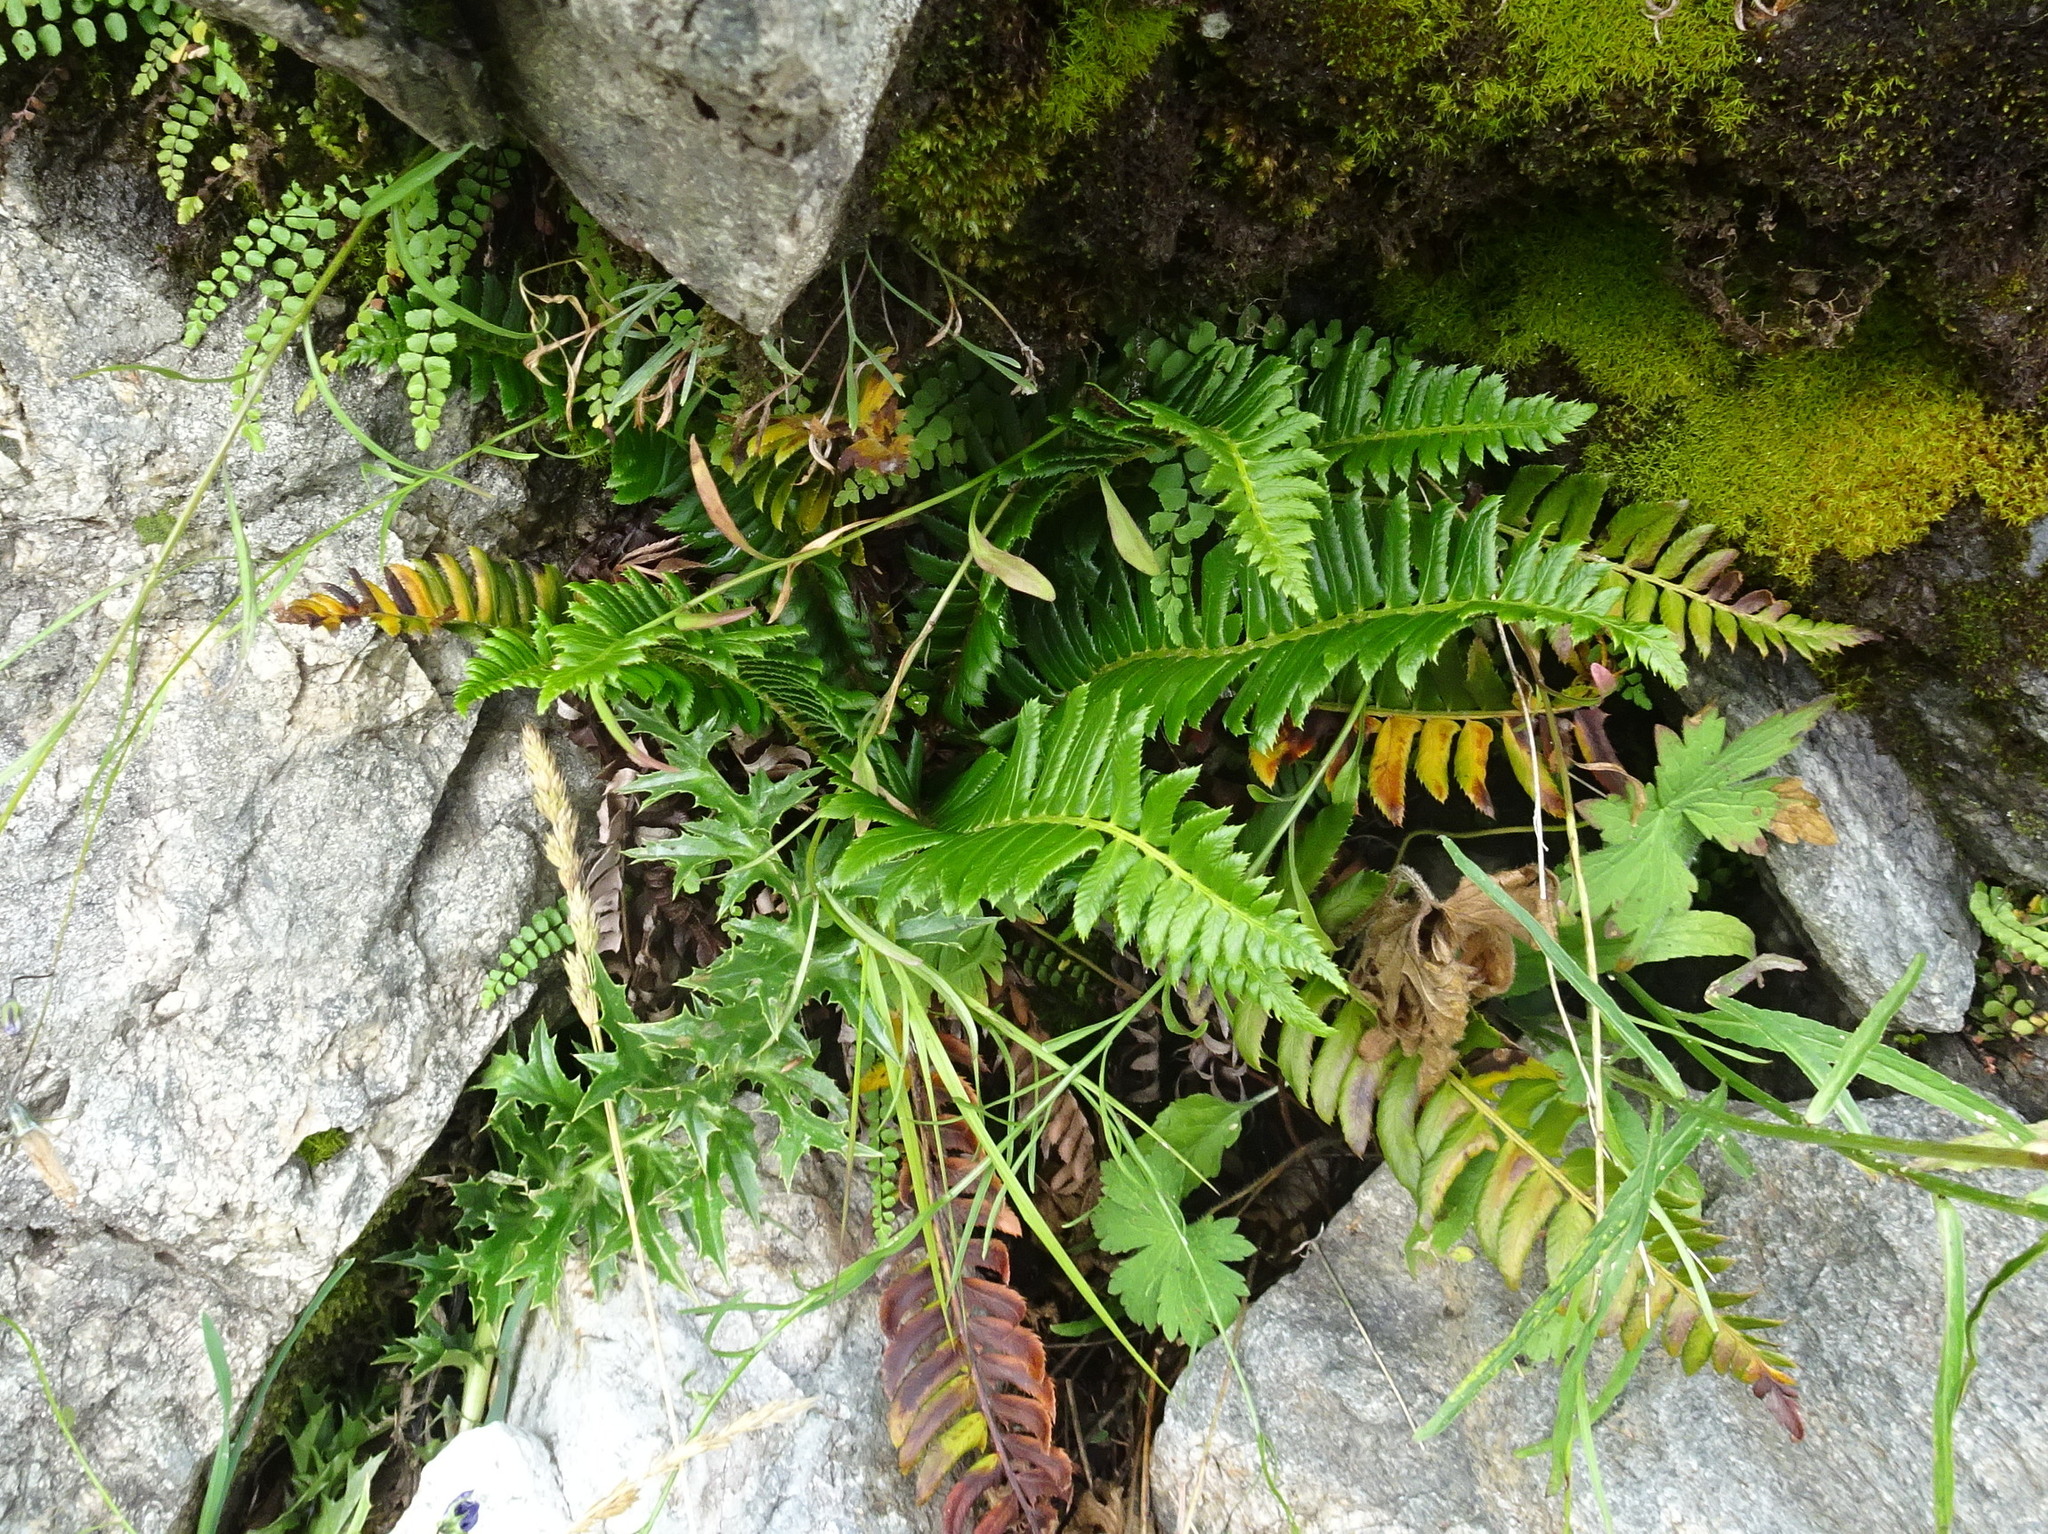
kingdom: Plantae
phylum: Tracheophyta
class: Polypodiopsida
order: Polypodiales
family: Dryopteridaceae
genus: Polystichum
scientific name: Polystichum lonchitis
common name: Holly fern
